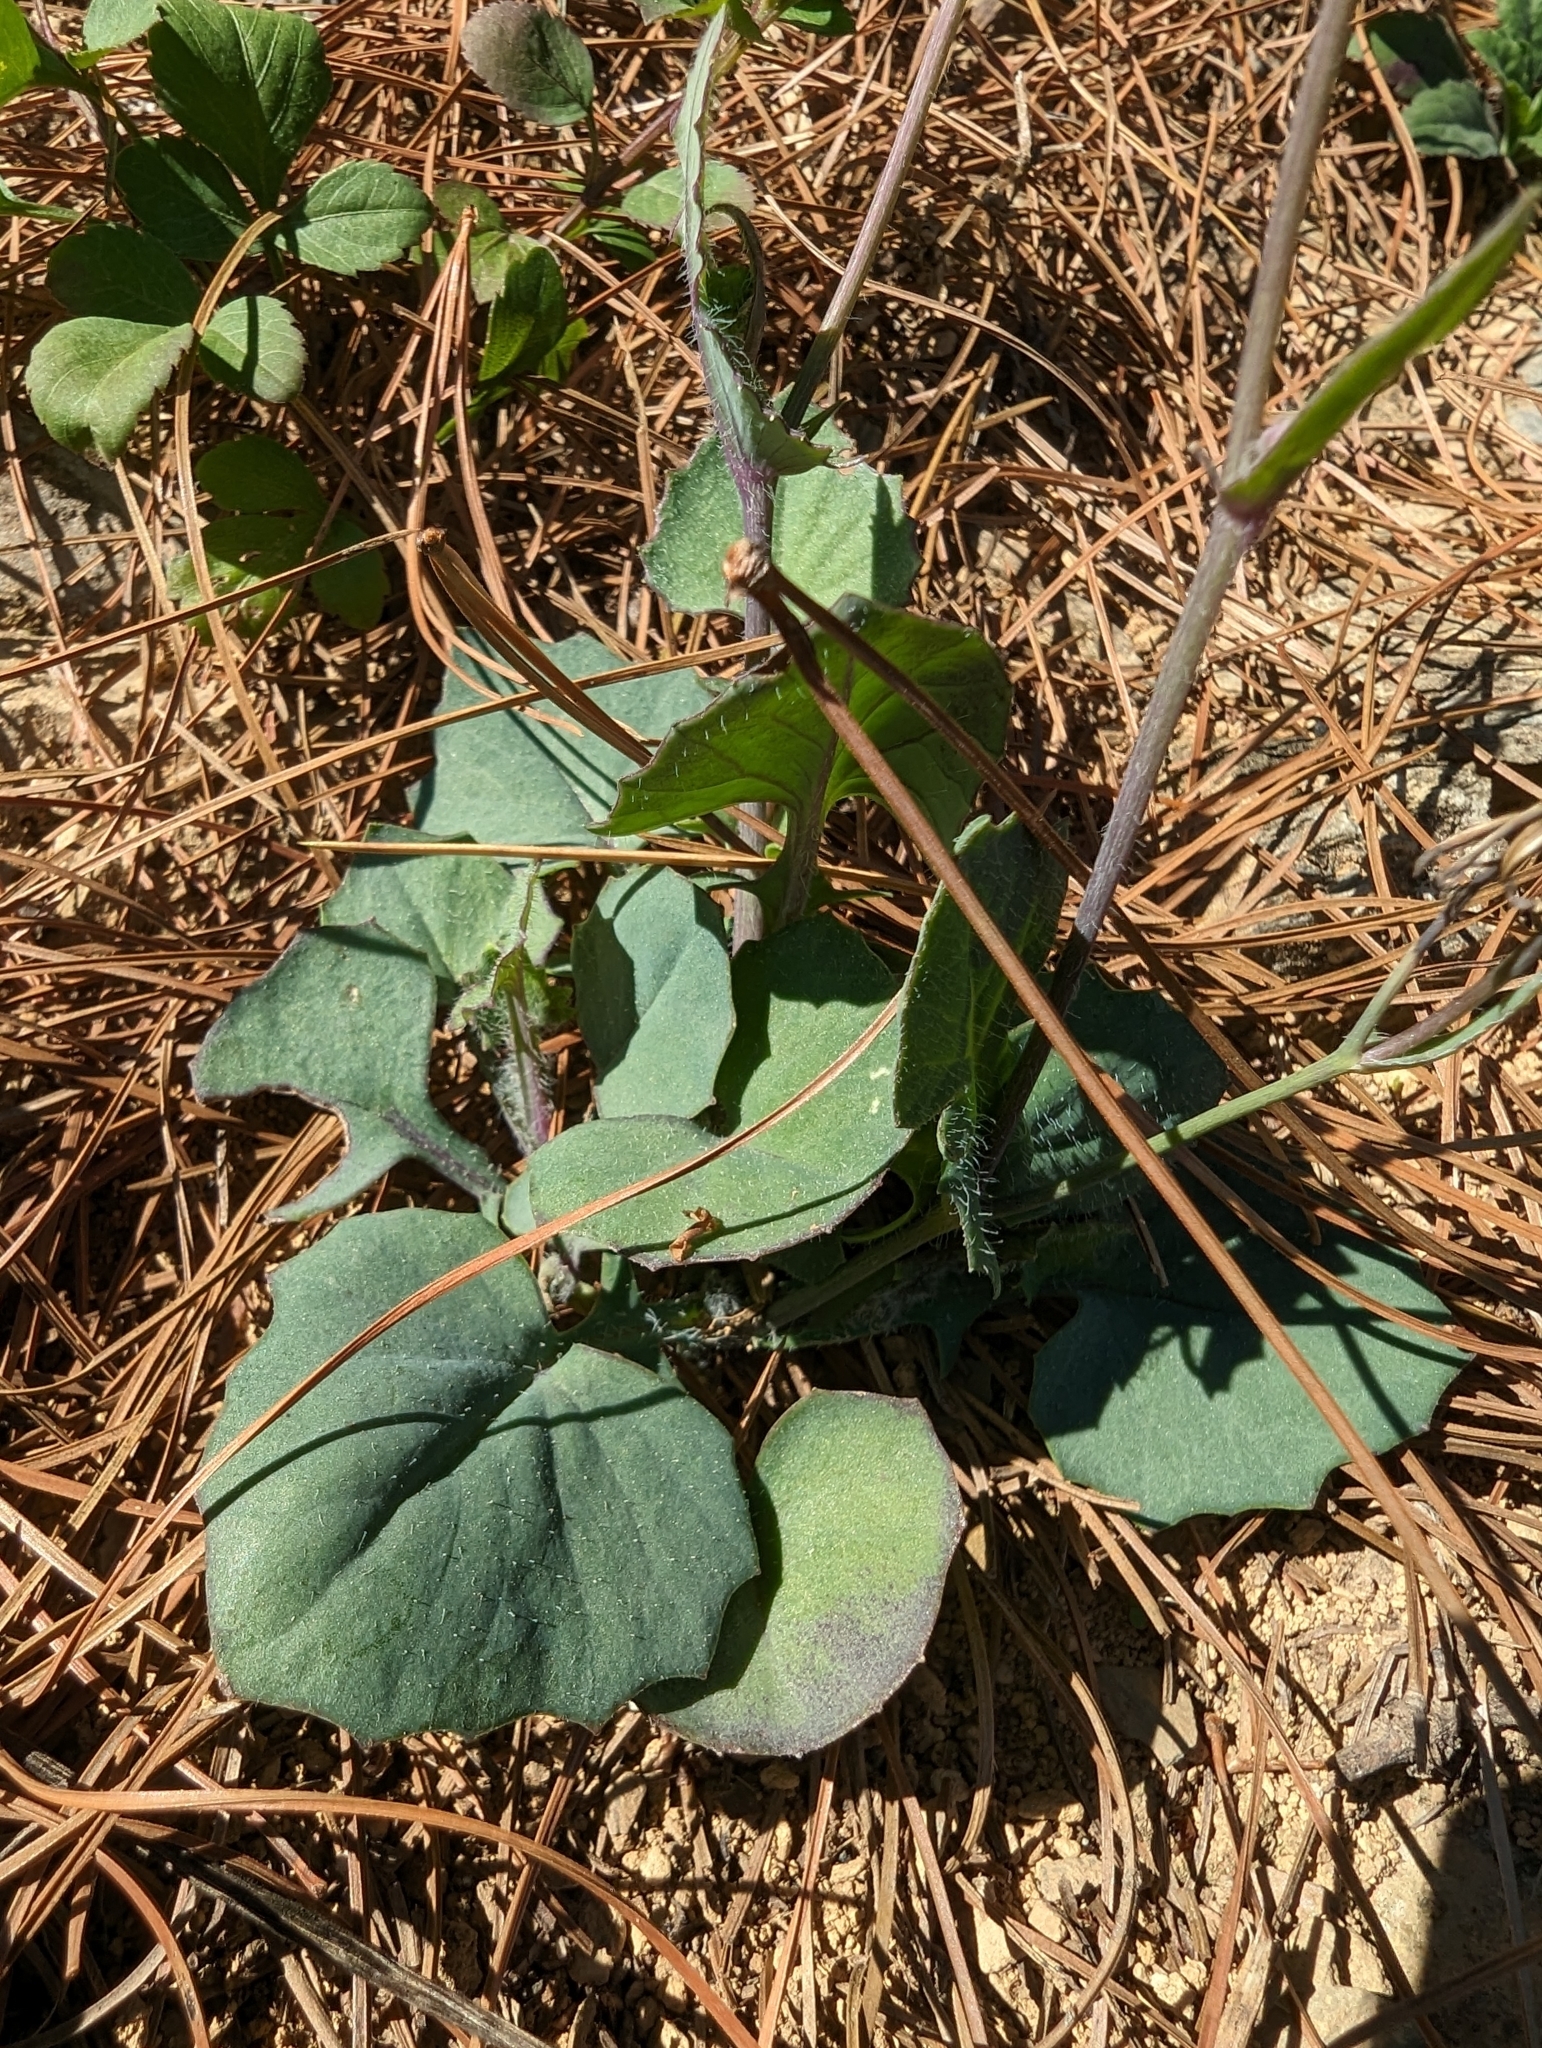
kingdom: Plantae
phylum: Tracheophyta
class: Magnoliopsida
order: Asterales
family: Asteraceae
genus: Emilia
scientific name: Emilia javanica
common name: Tassel-flower
